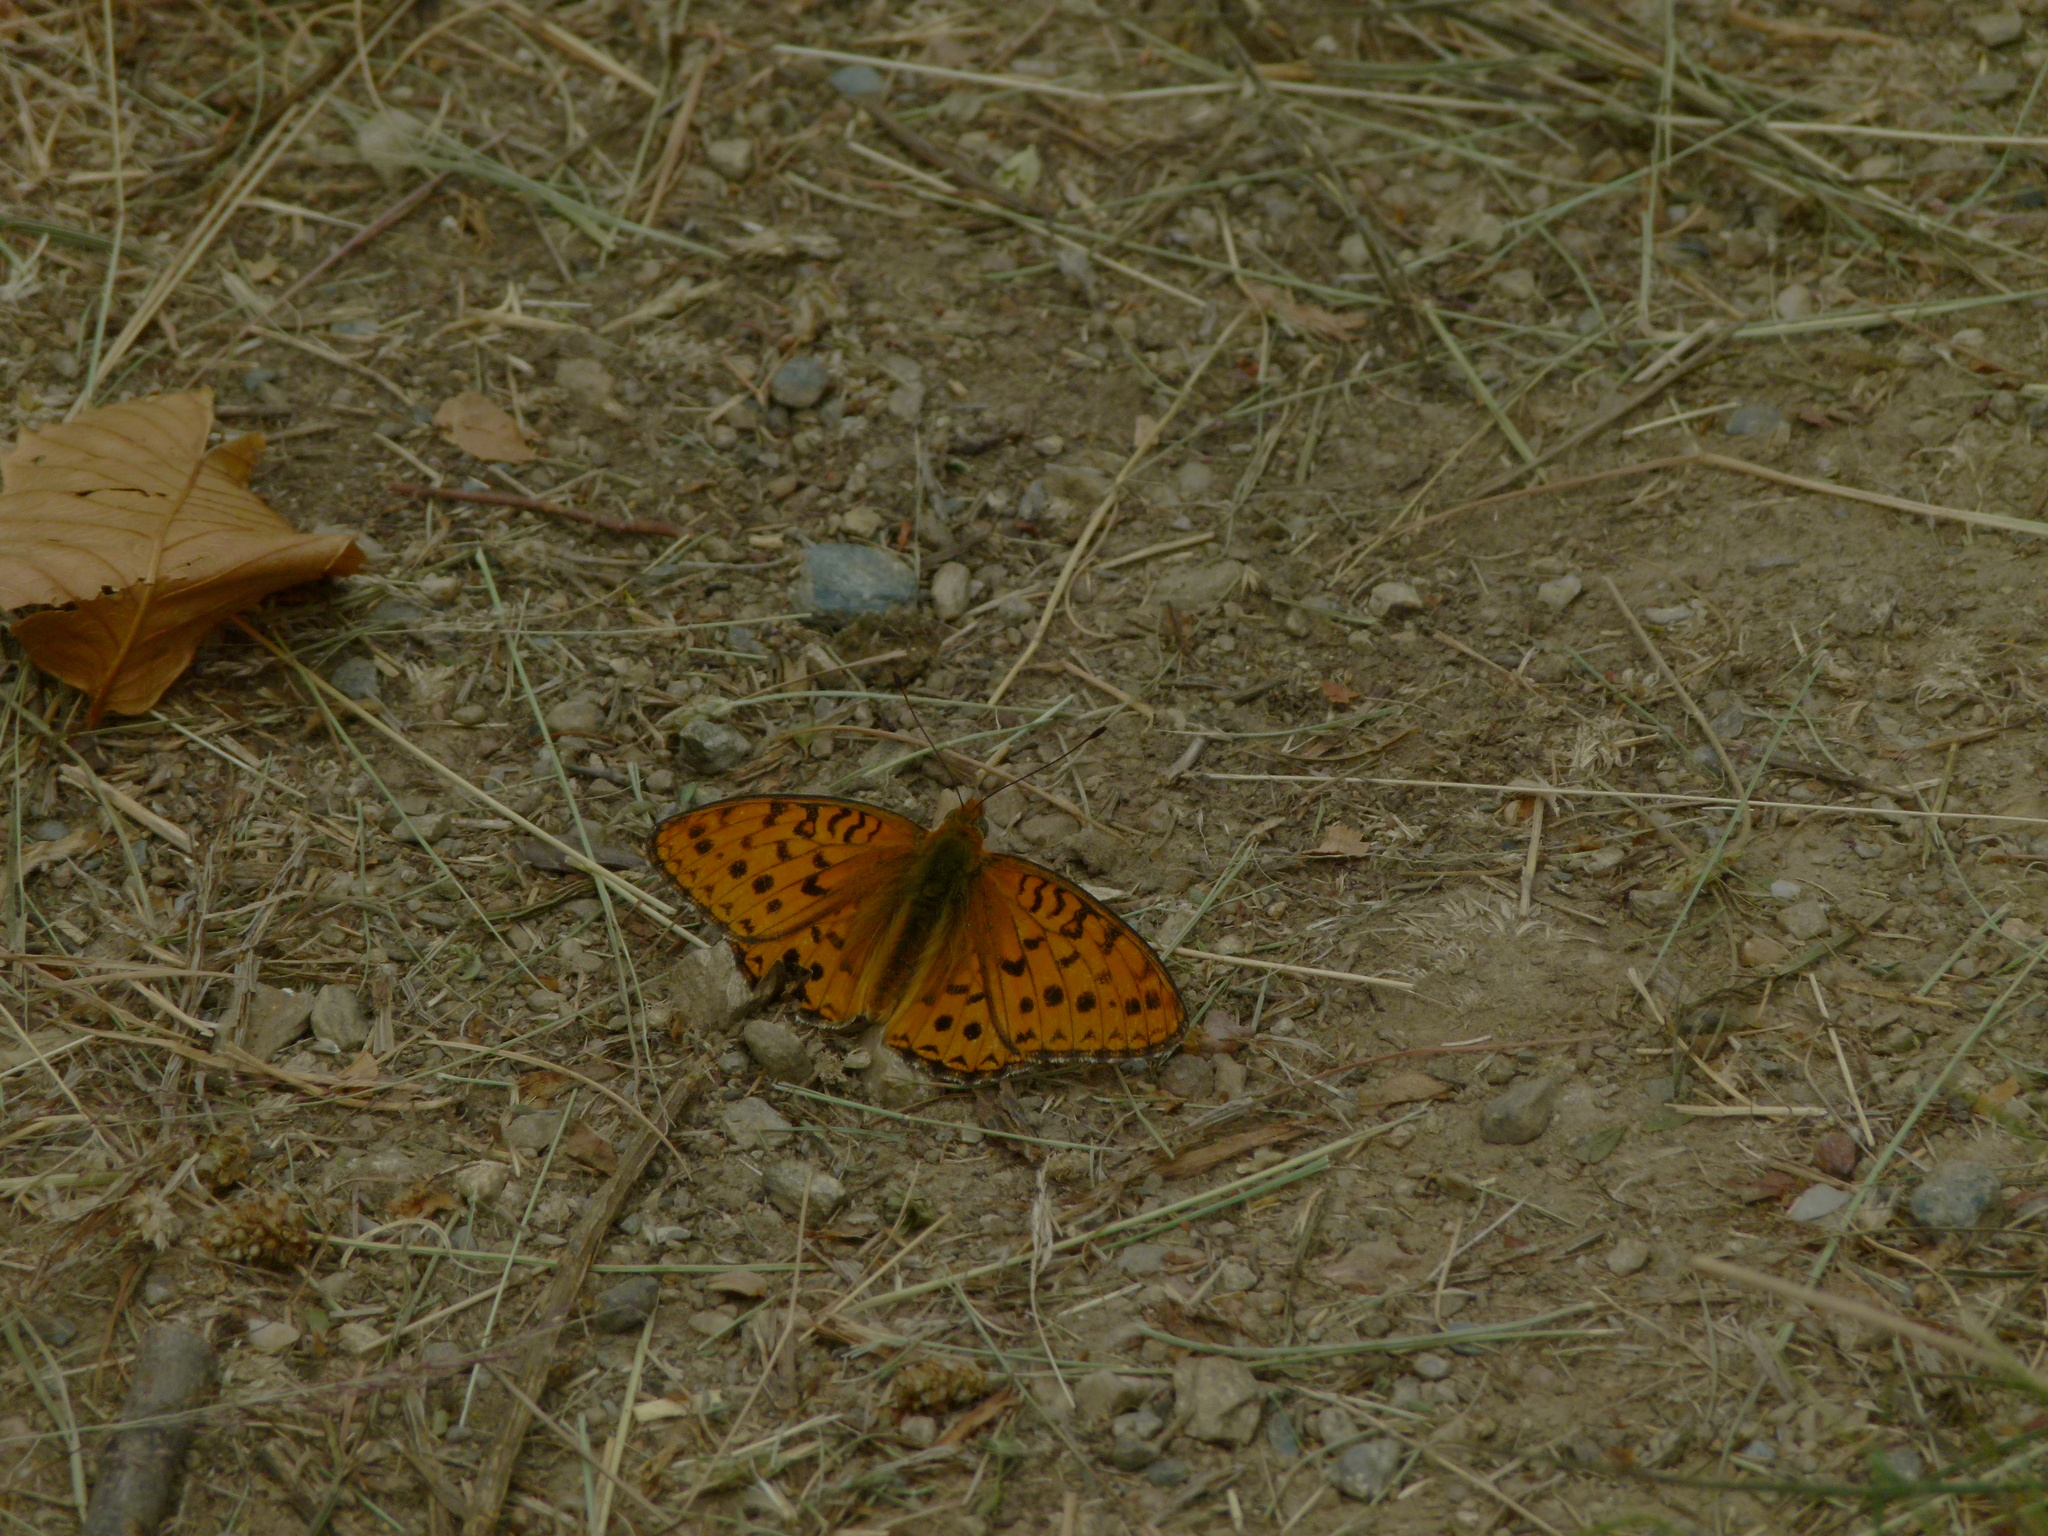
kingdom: Animalia
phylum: Arthropoda
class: Insecta
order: Lepidoptera
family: Nymphalidae
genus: Fabriciana
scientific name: Fabriciana niobe
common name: Niobe fritillary
